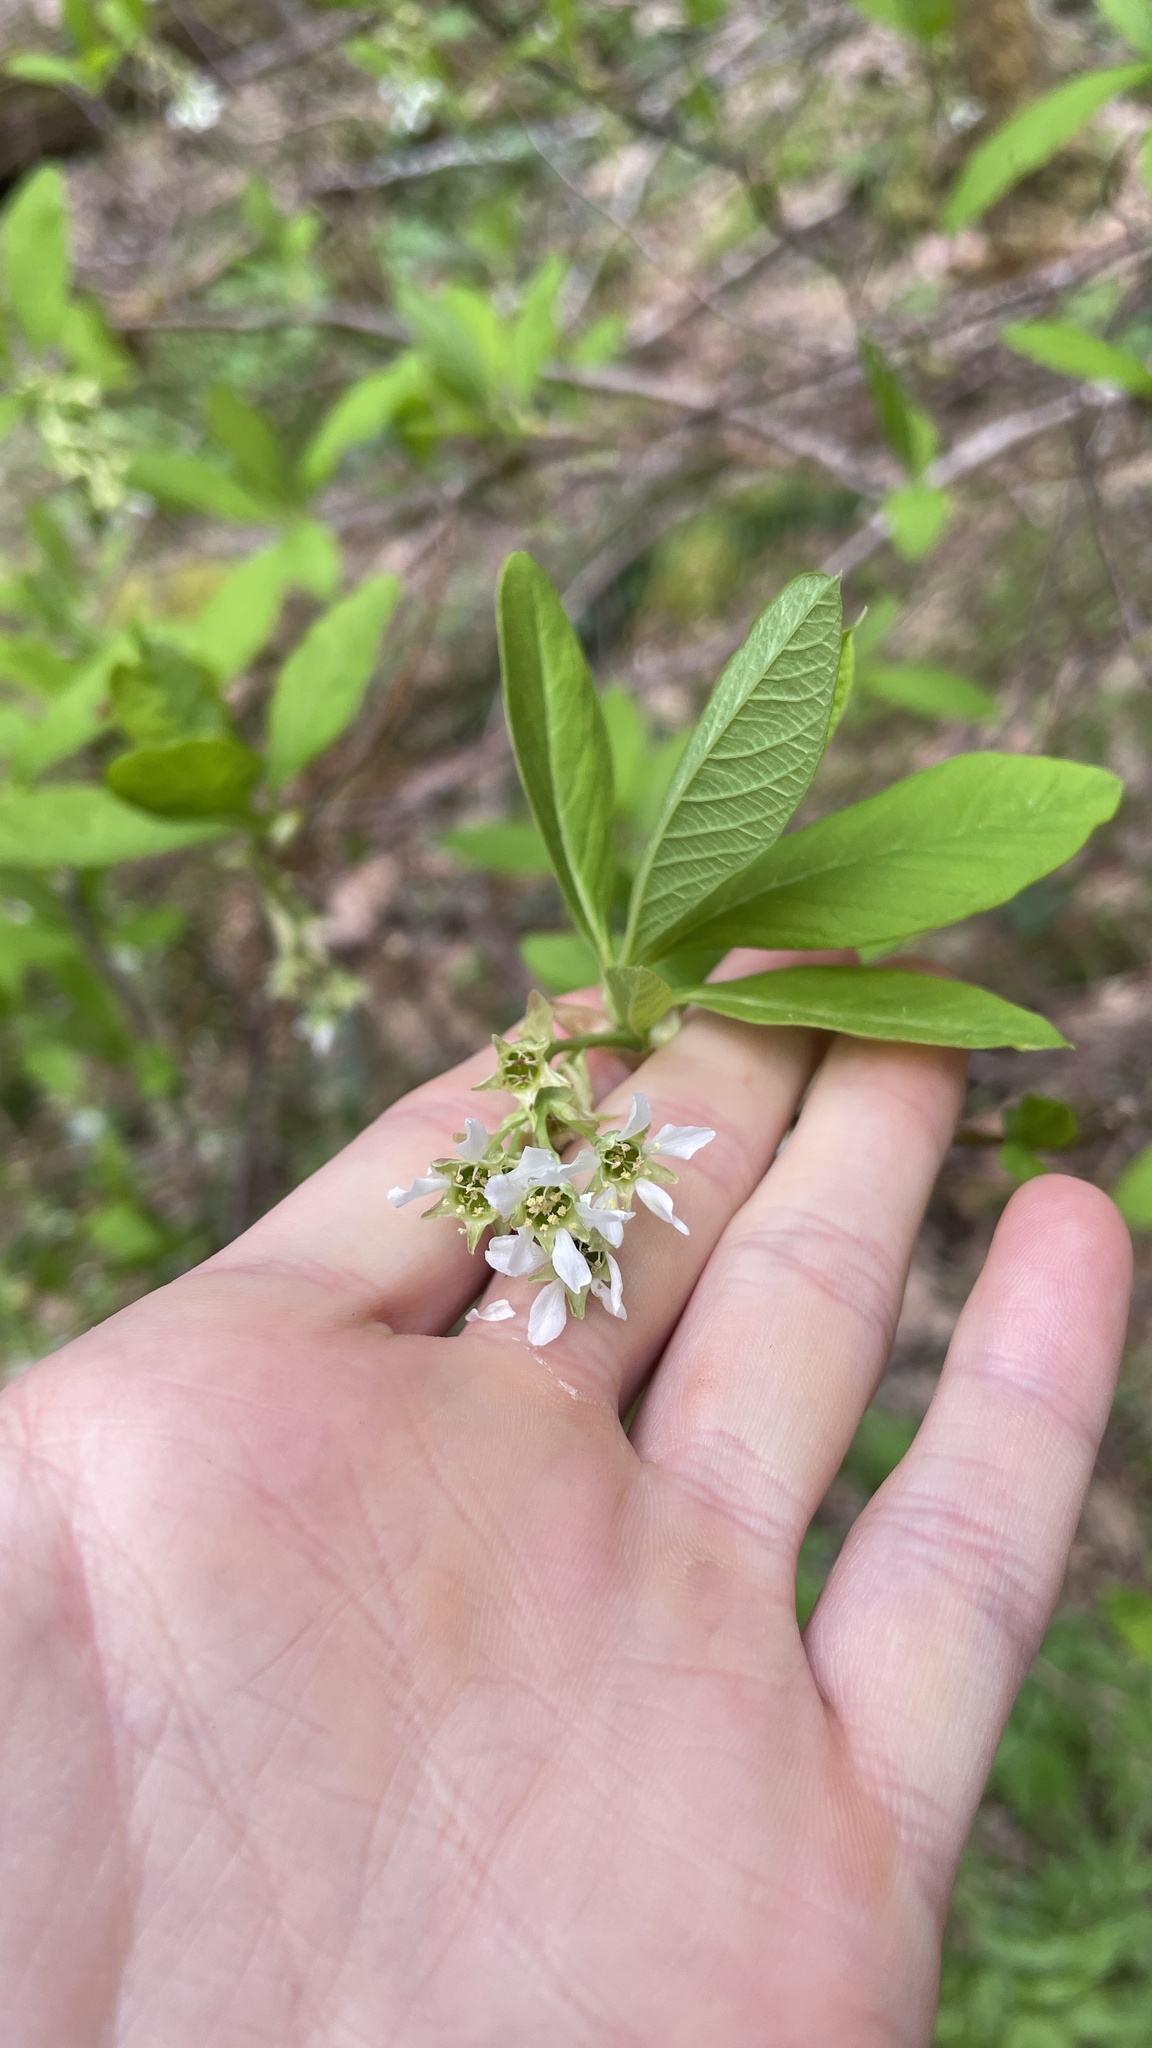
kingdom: Plantae
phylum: Tracheophyta
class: Magnoliopsida
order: Rosales
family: Rosaceae
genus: Oemleria
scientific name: Oemleria cerasiformis
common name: Osoberry
